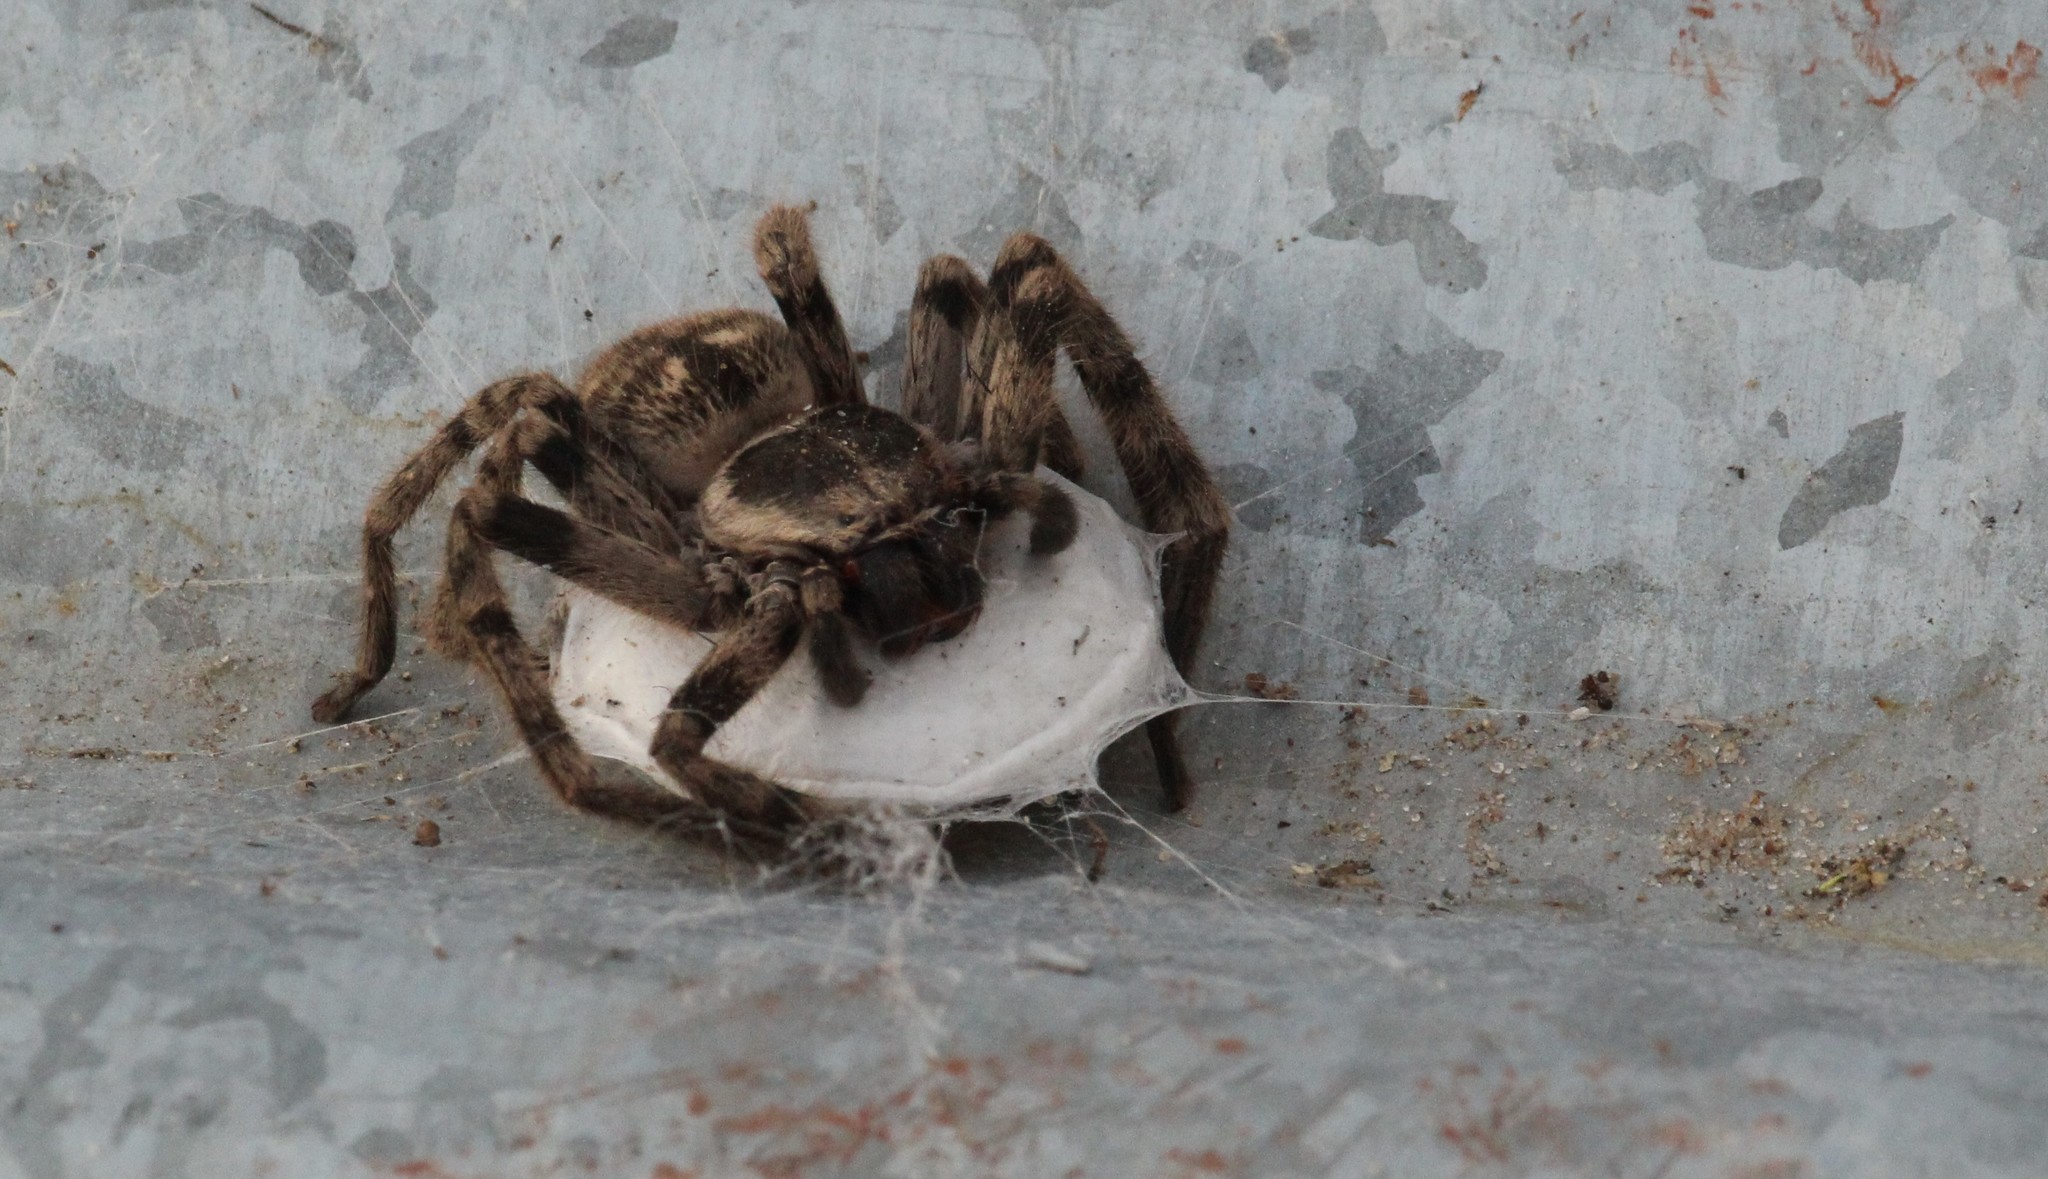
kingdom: Animalia
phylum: Arthropoda
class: Arachnida
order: Araneae
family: Sparassidae
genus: Polybetes
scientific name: Polybetes pythagoricus
